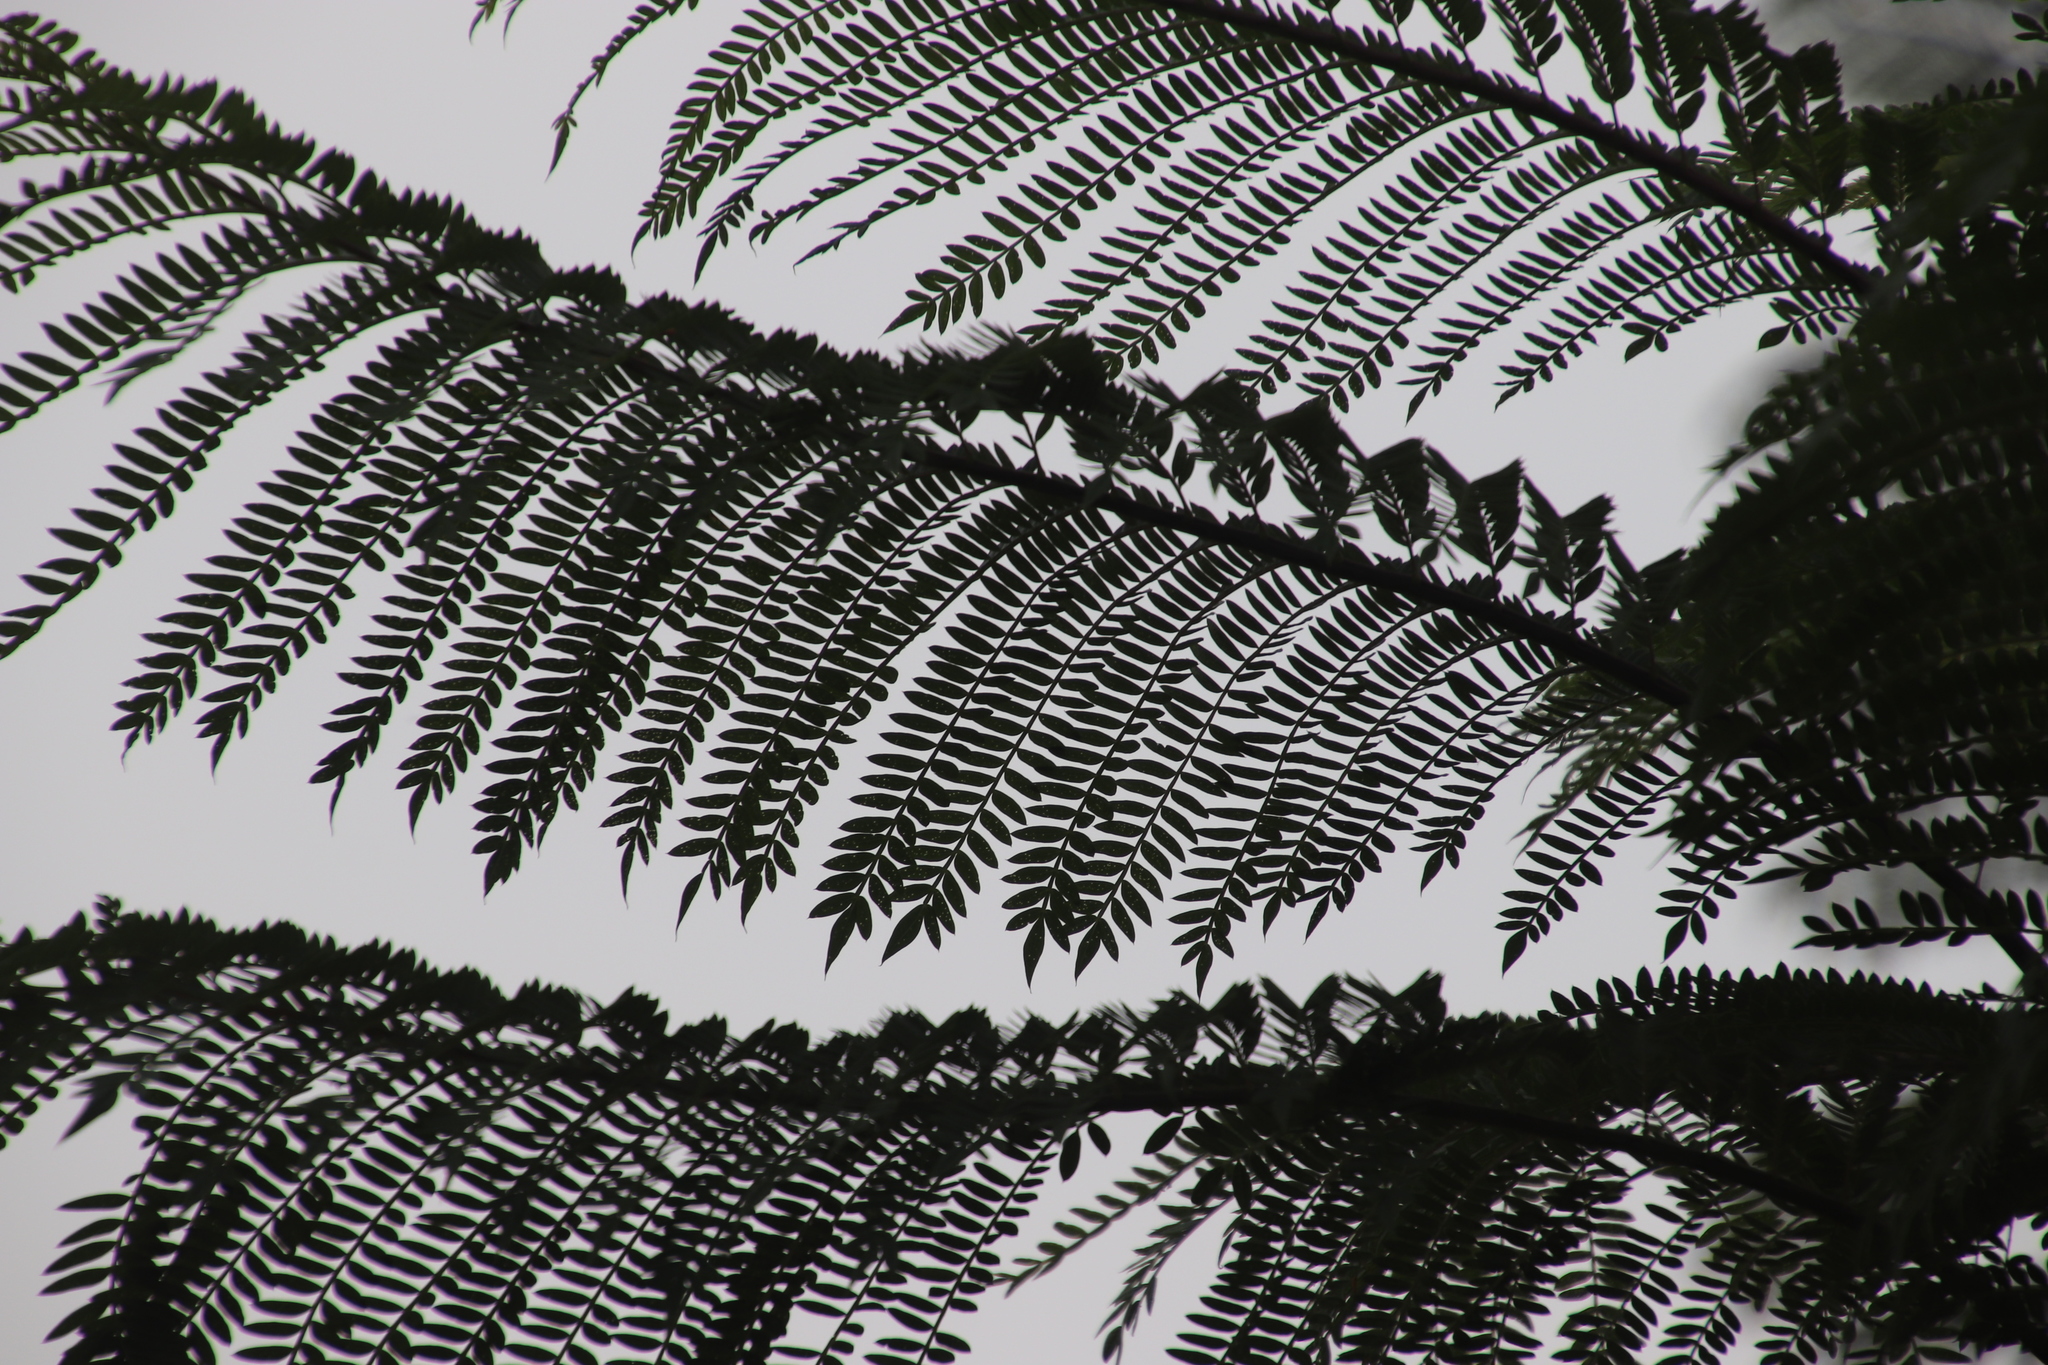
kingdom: Plantae
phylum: Tracheophyta
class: Magnoliopsida
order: Lamiales
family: Bignoniaceae
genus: Jacaranda
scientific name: Jacaranda mimosifolia
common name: Black poui
